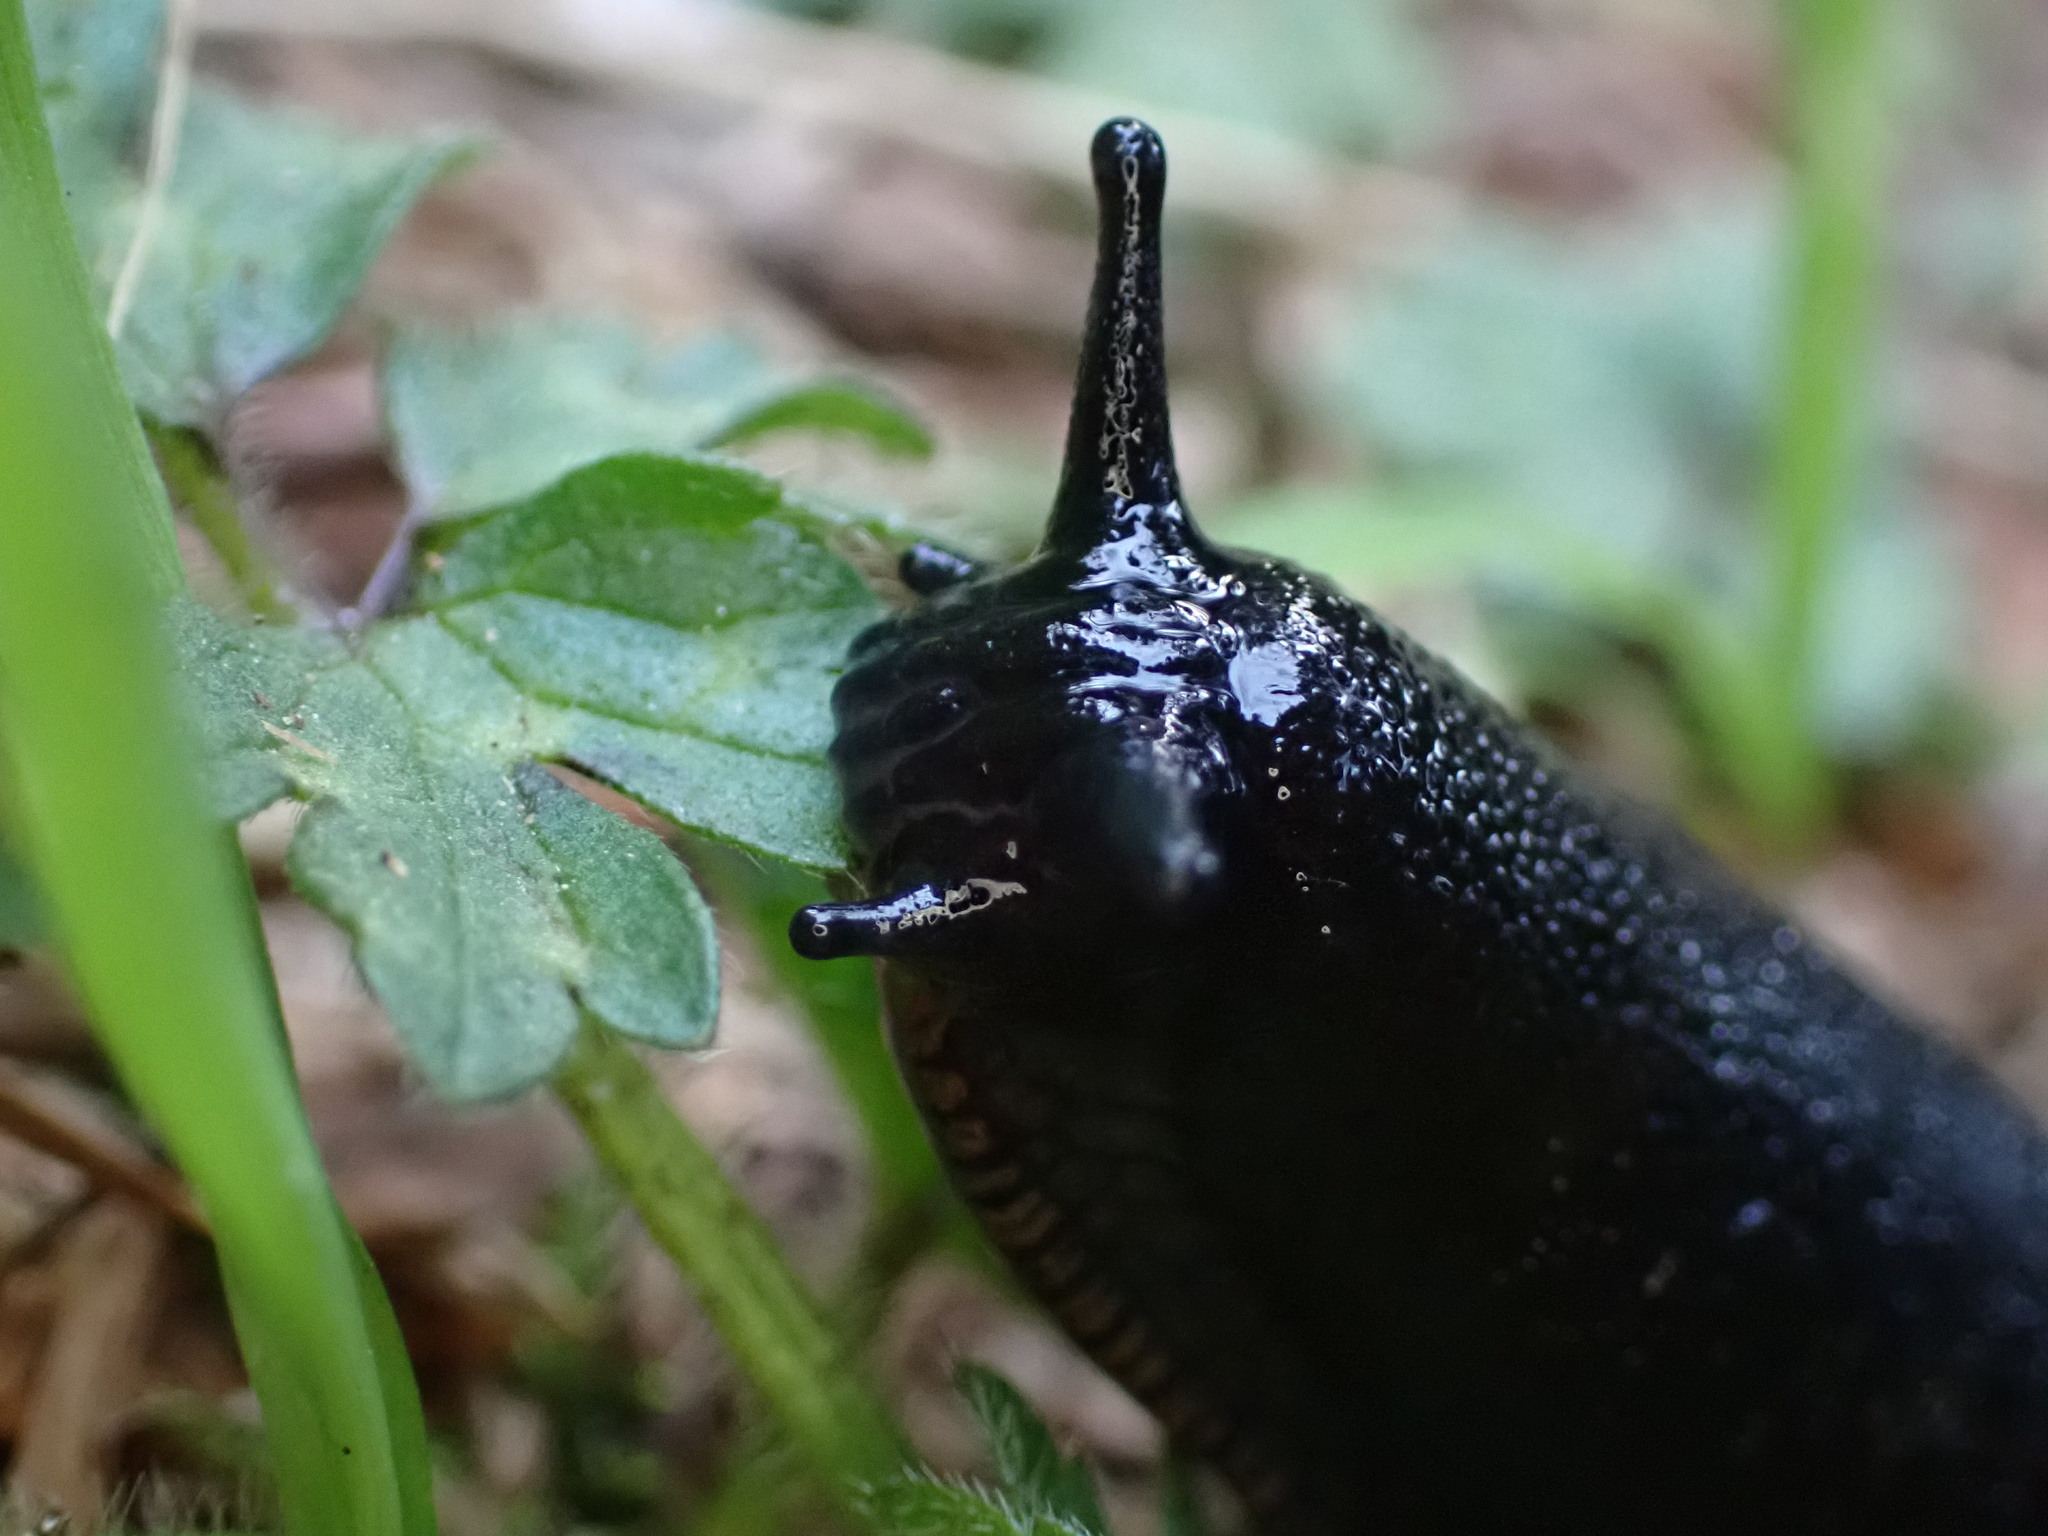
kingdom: Animalia
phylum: Mollusca
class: Gastropoda
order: Stylommatophora
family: Arionidae
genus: Arion
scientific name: Arion
